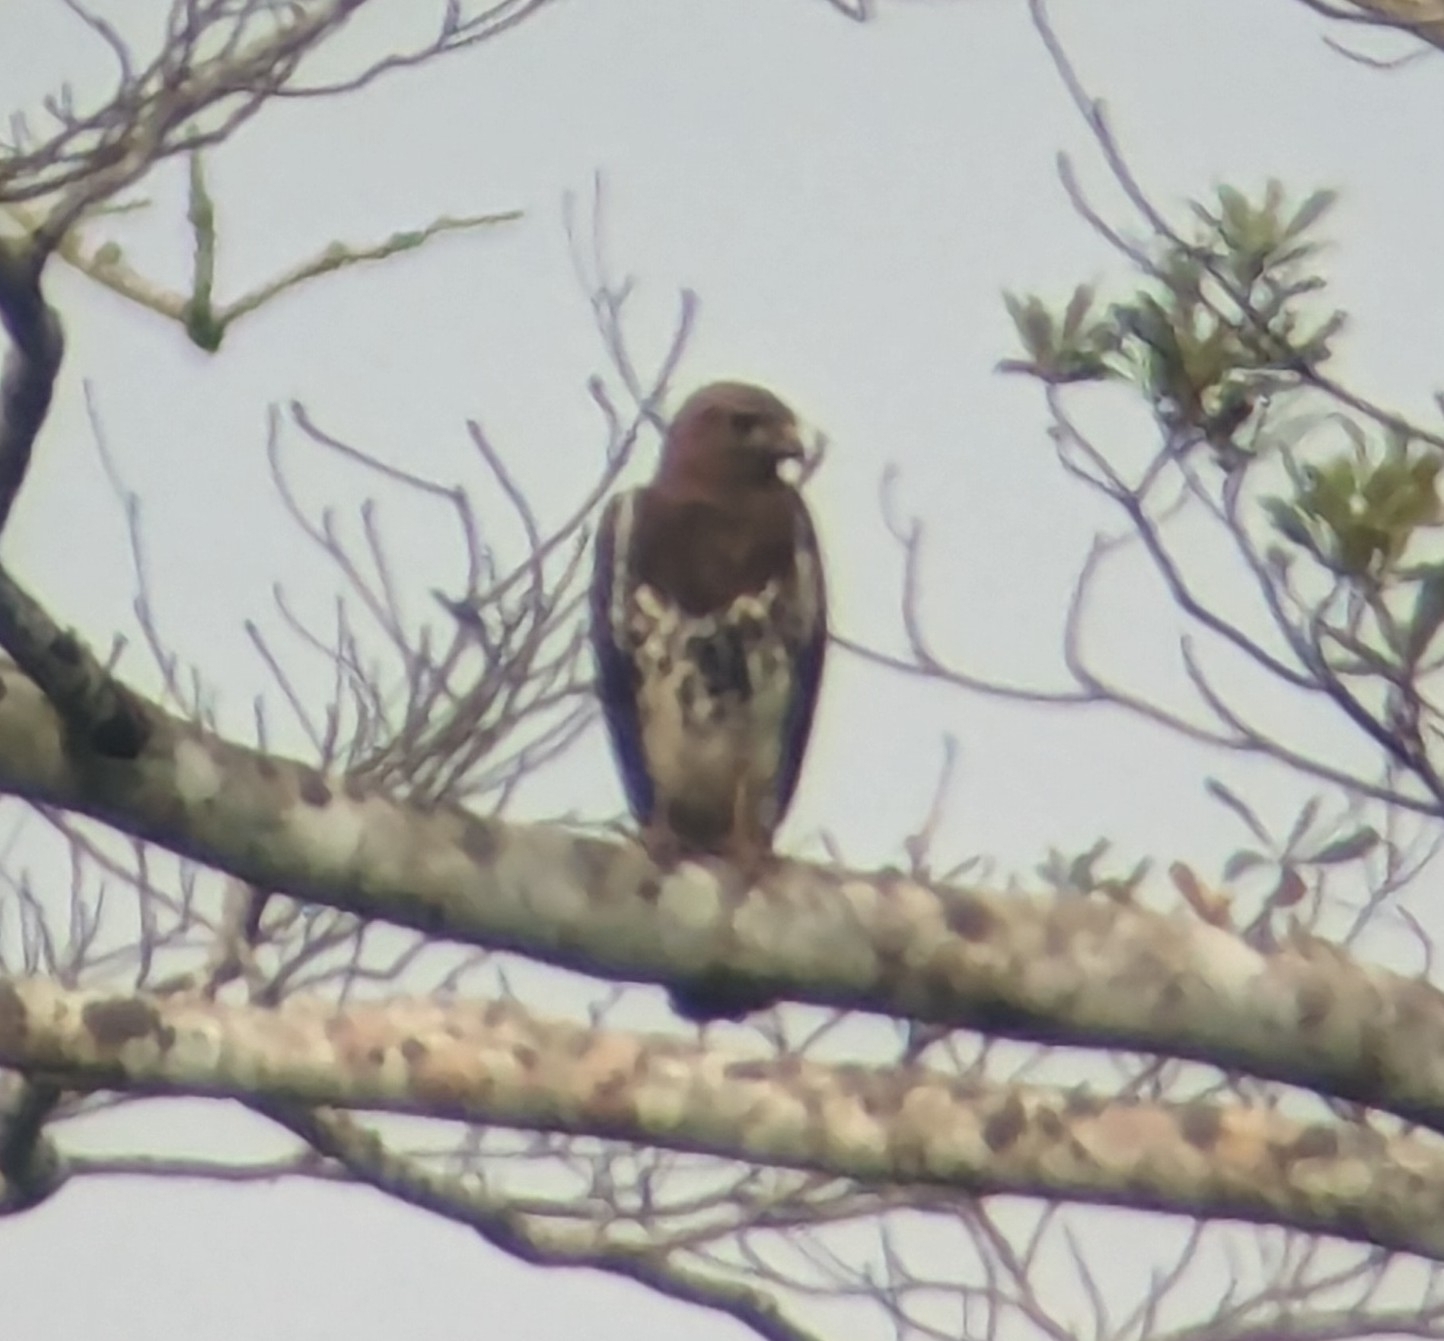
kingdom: Animalia
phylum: Chordata
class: Aves
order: Accipitriformes
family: Accipitridae
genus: Buteo
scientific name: Buteo auguralis
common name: Red-necked buzzard
